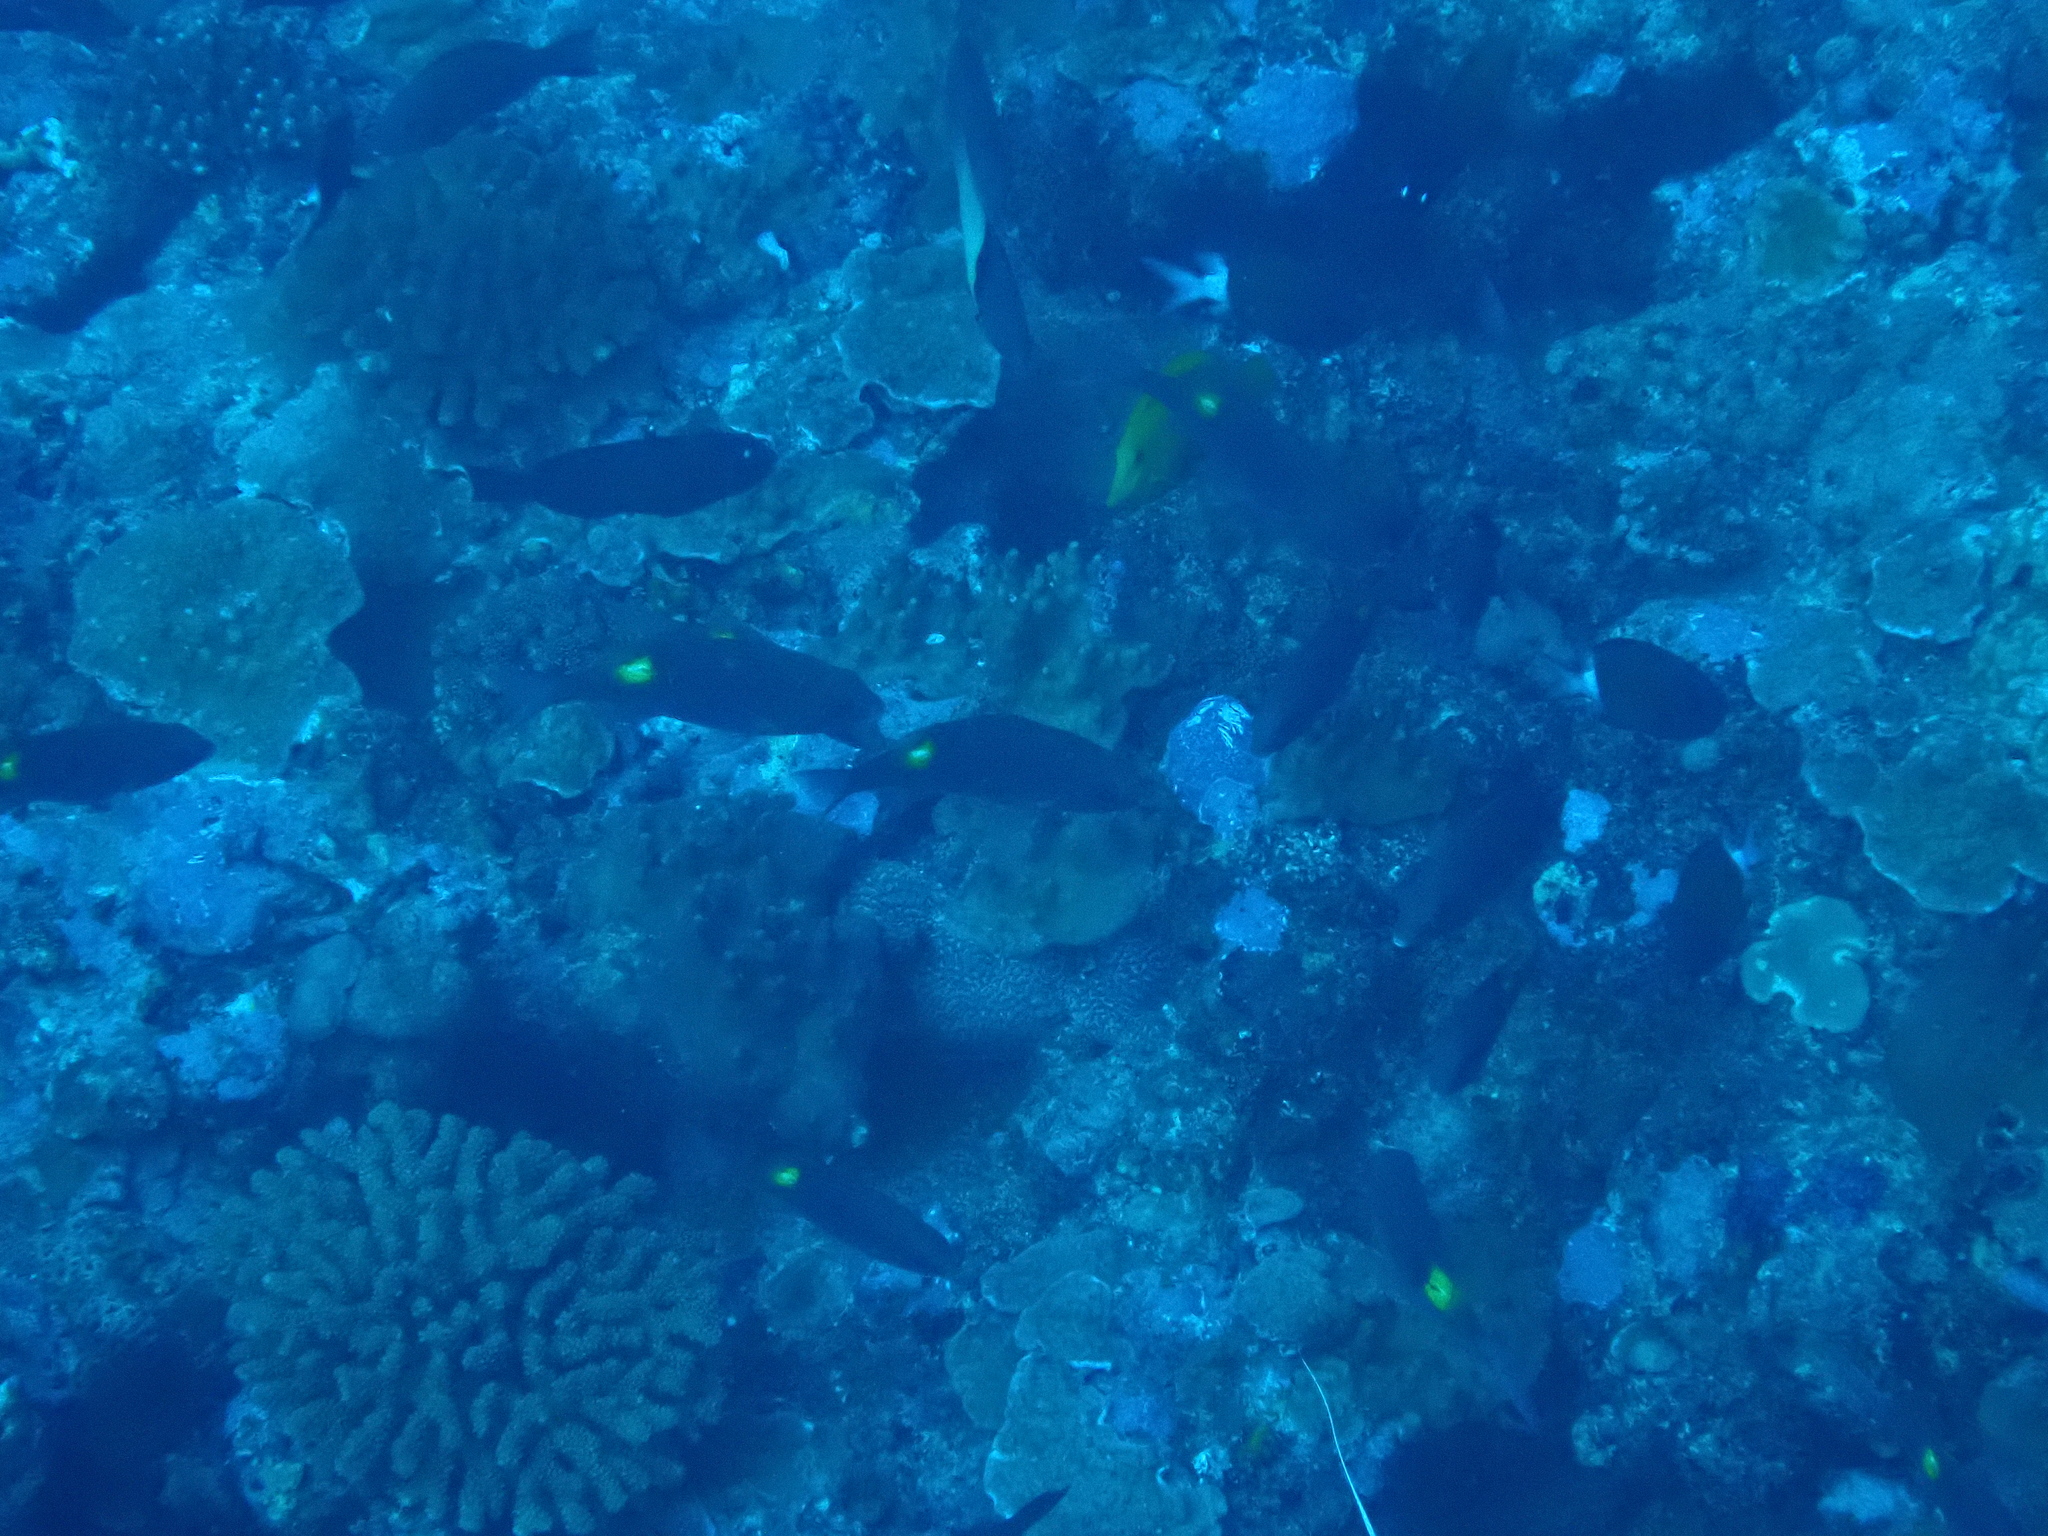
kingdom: Animalia
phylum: Chordata
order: Perciformes
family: Lethrinidae
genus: Gnathodentex
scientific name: Gnathodentex aureolineatus
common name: Gold-lined sea bream
